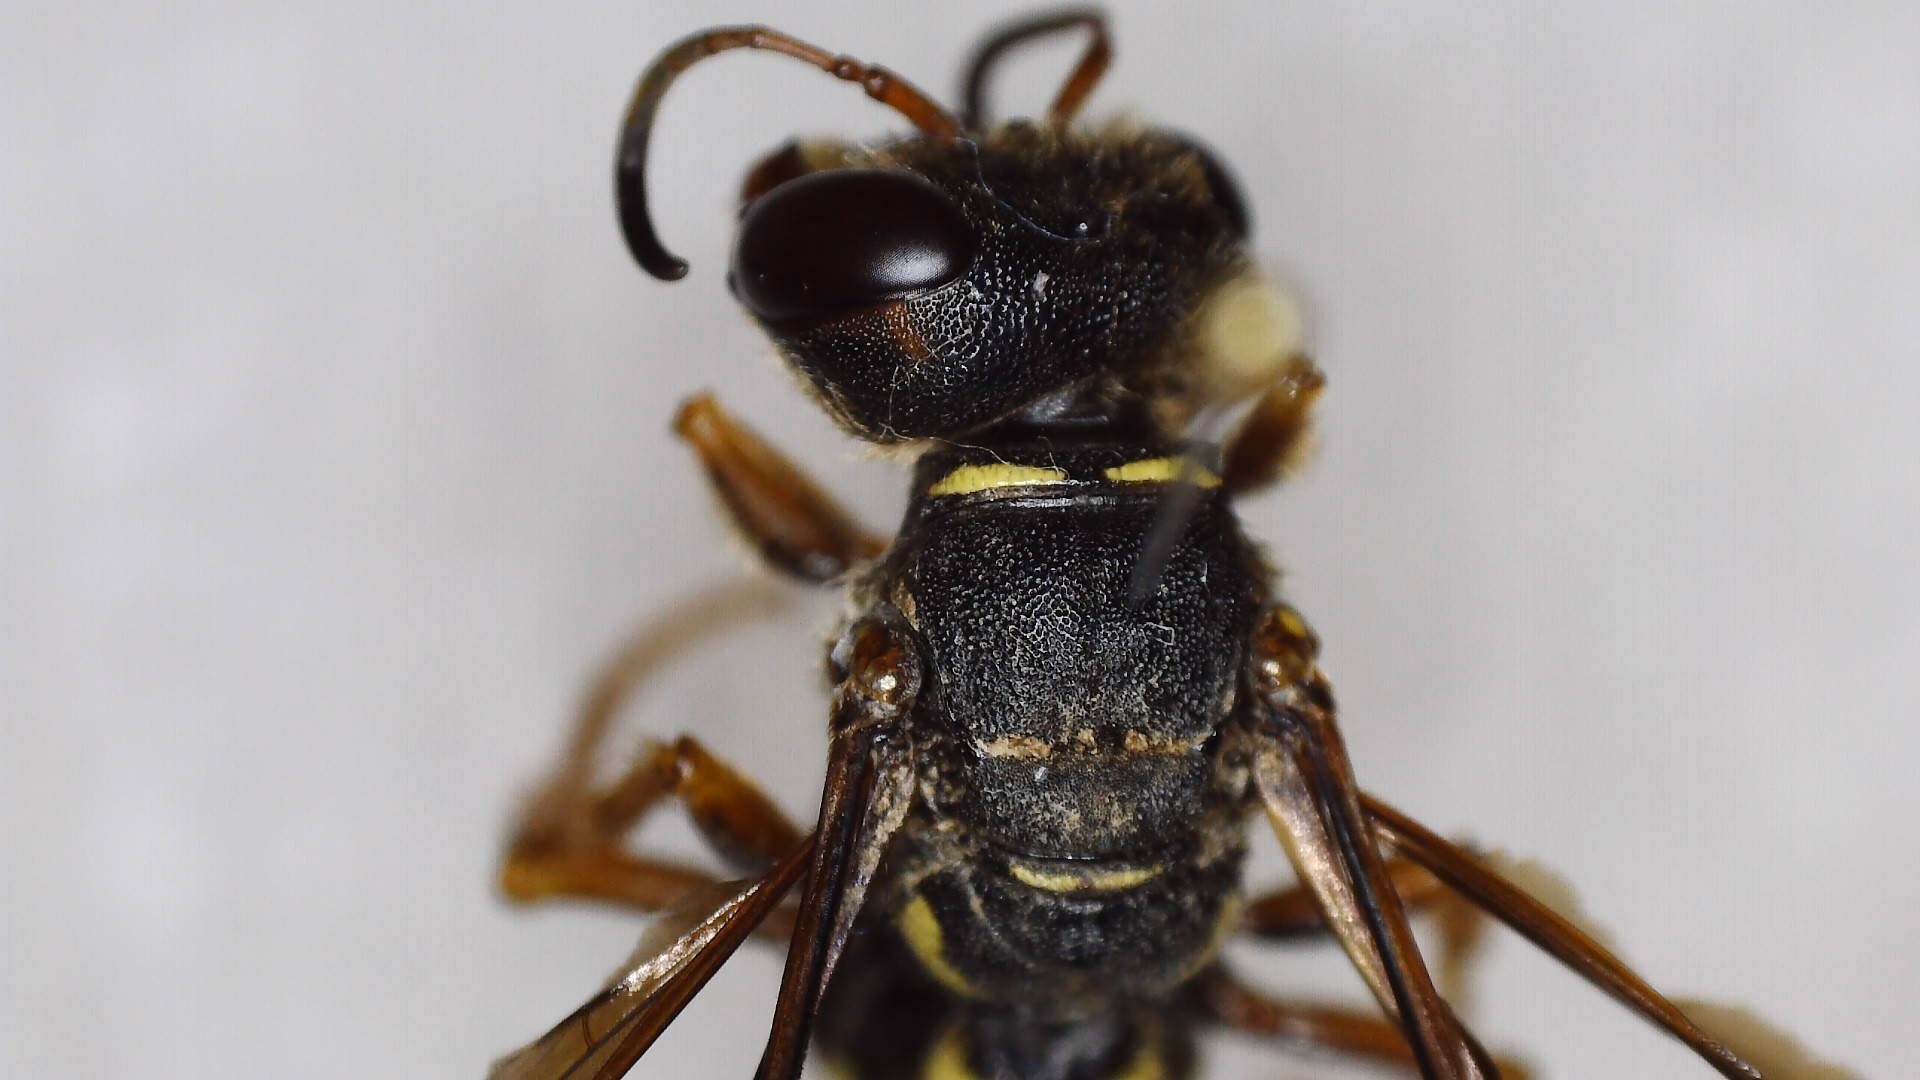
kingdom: Animalia
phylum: Arthropoda
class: Insecta
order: Hymenoptera
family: Crabronidae
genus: Eucerceris
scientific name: Eucerceris zonata
